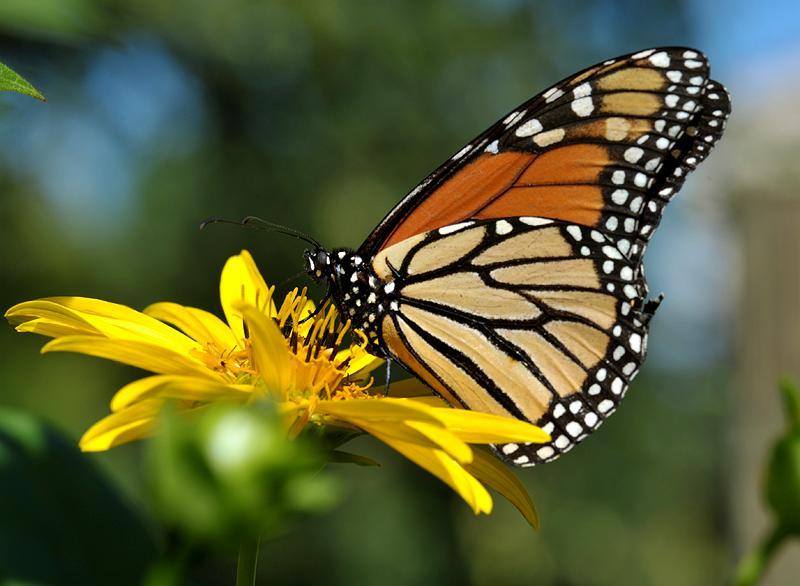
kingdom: Animalia
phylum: Arthropoda
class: Insecta
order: Lepidoptera
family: Nymphalidae
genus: Danaus
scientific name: Danaus plexippus
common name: Monarch
